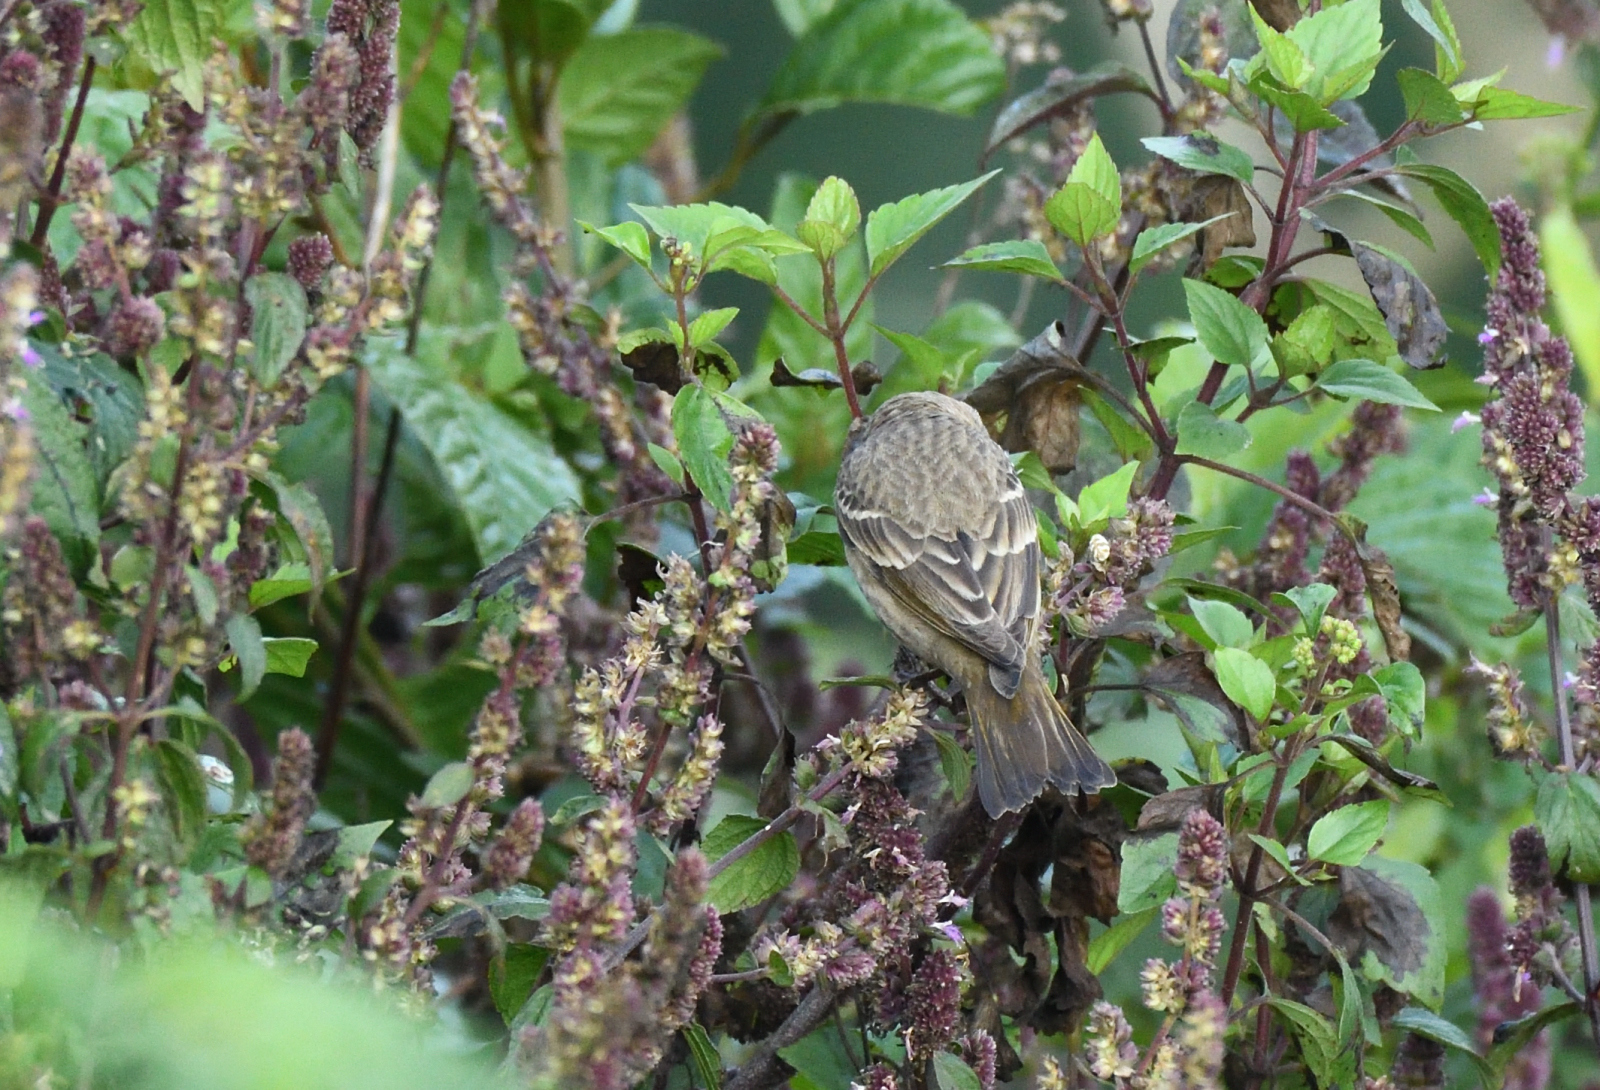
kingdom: Animalia
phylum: Chordata
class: Aves
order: Passeriformes
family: Fringillidae
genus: Carpodacus
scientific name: Carpodacus erythrinus
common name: Common rosefinch
